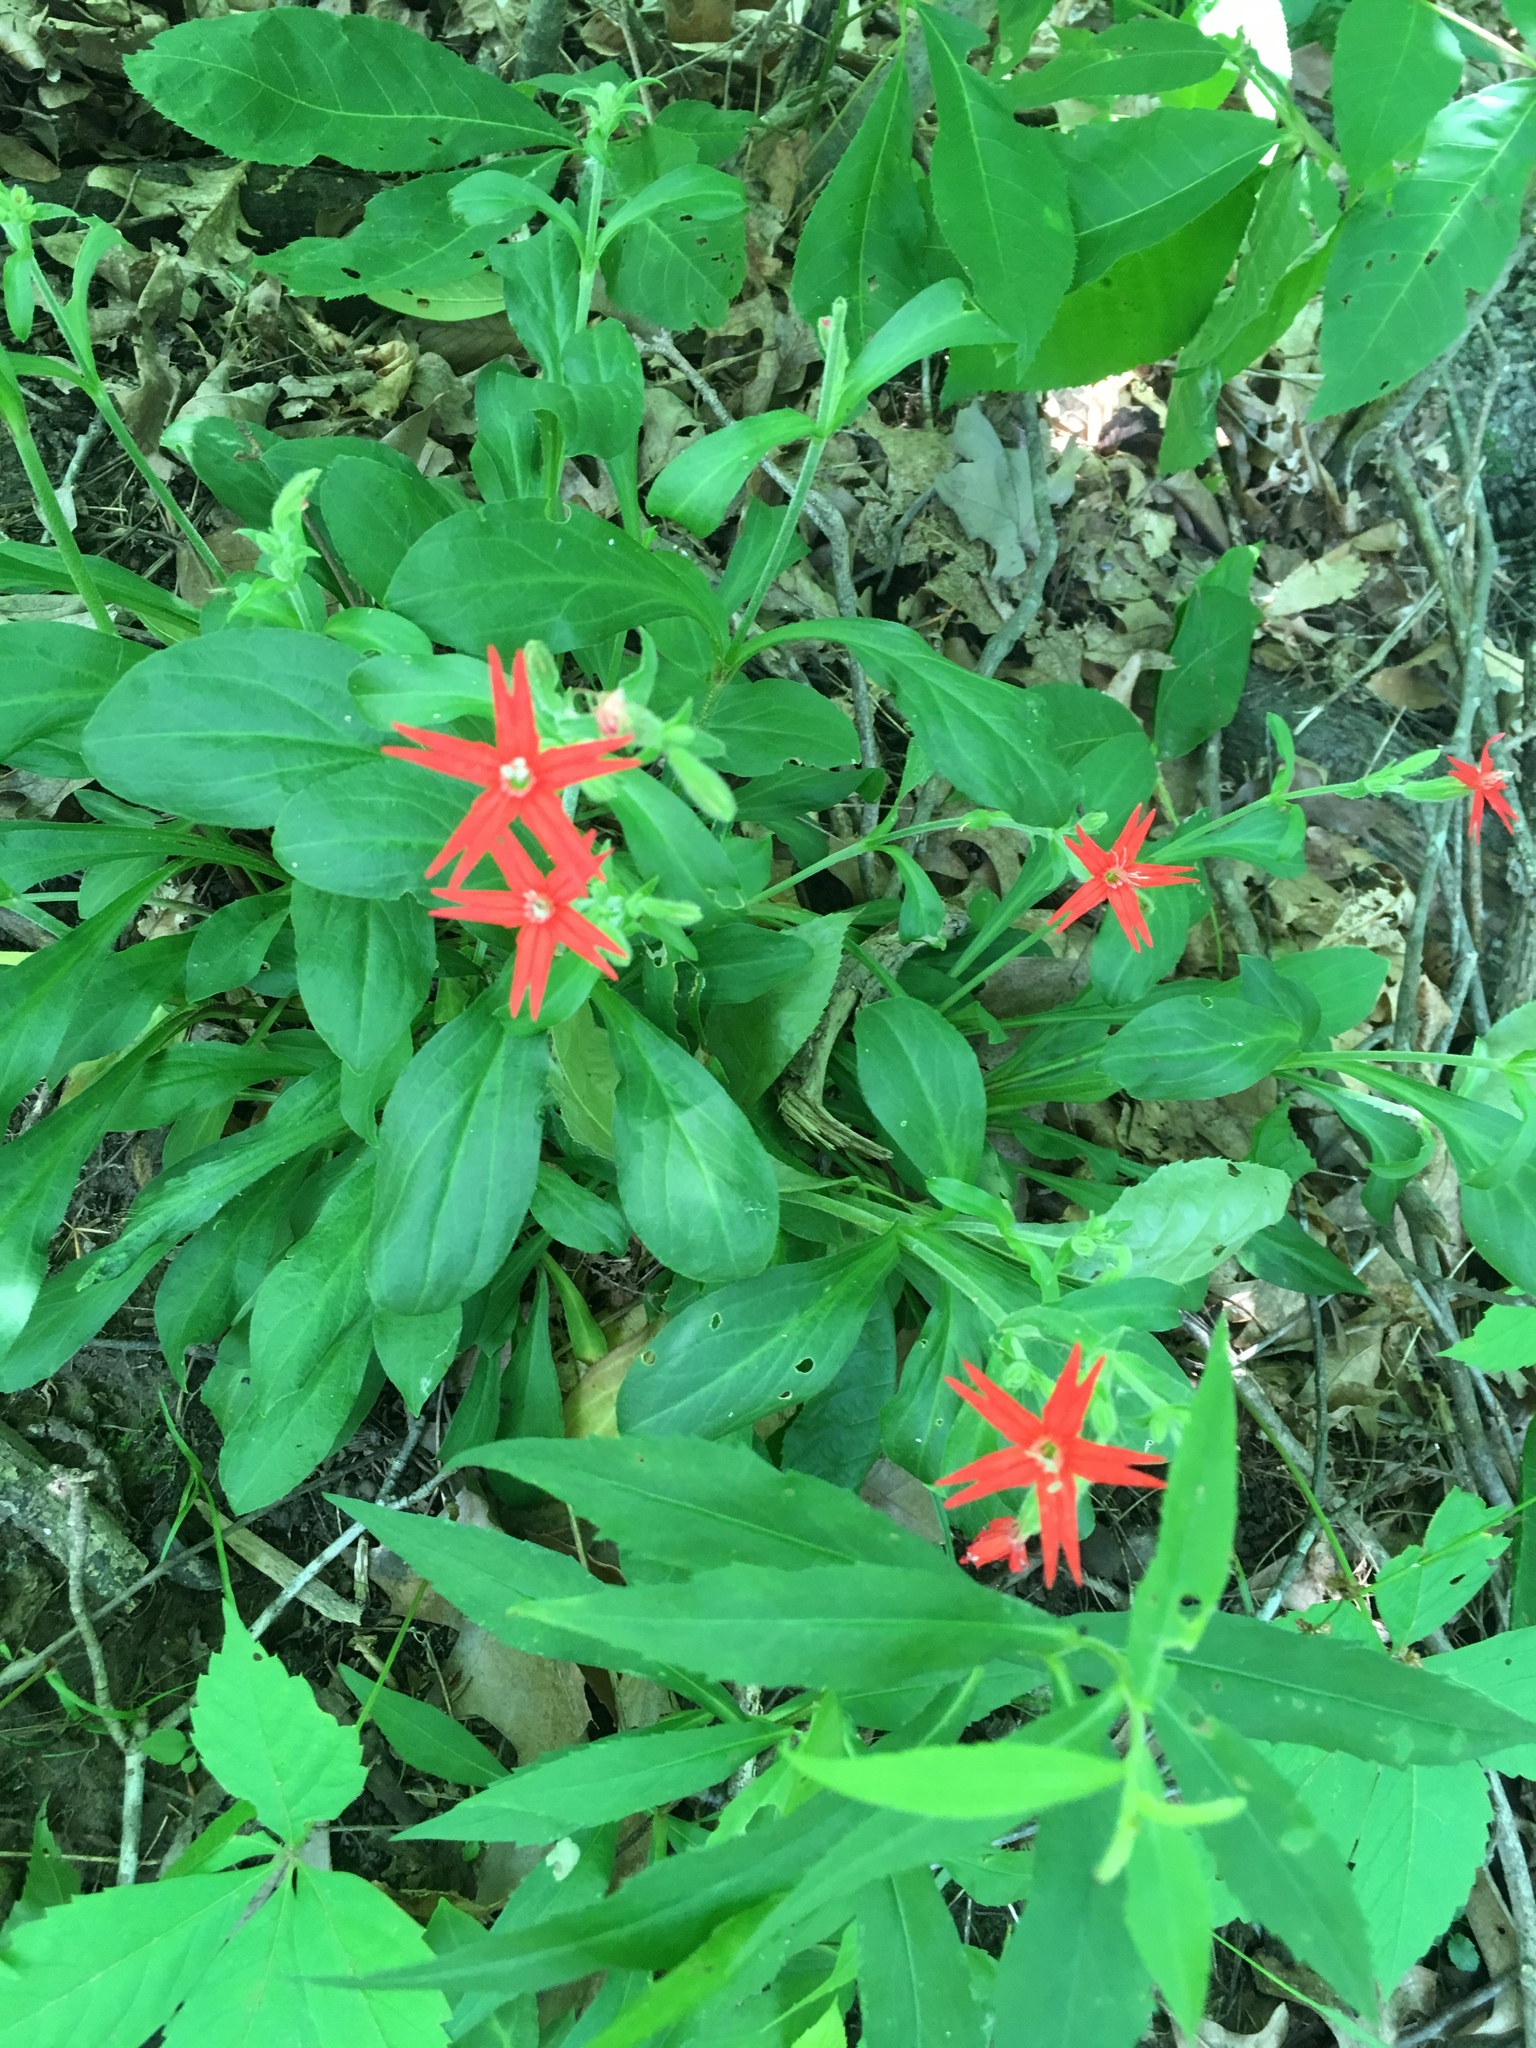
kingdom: Plantae
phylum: Tracheophyta
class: Magnoliopsida
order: Caryophyllales
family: Caryophyllaceae
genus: Silene
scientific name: Silene virginica
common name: Fire-pink
